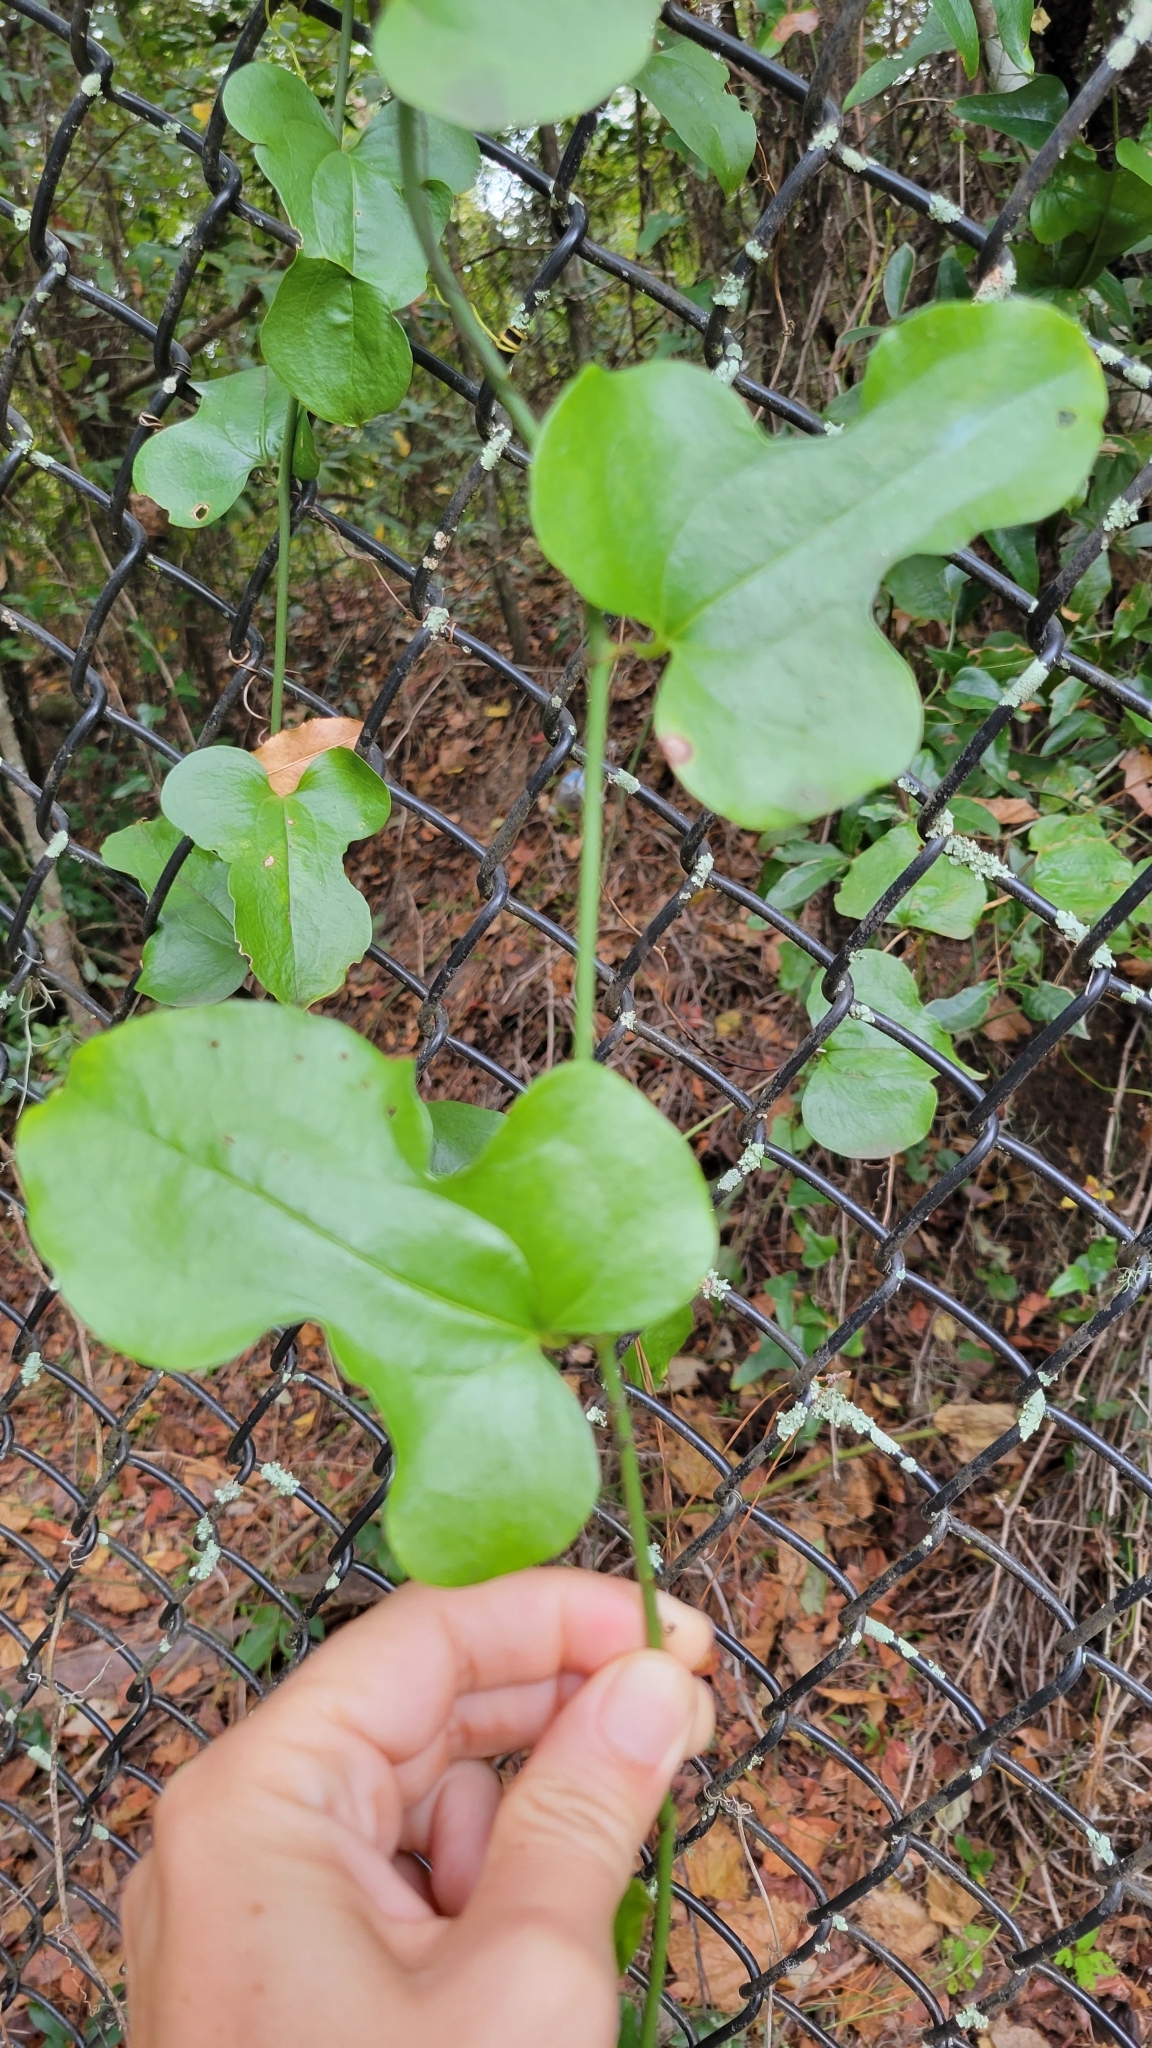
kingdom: Plantae
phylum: Tracheophyta
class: Liliopsida
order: Liliales
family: Smilacaceae
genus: Smilax
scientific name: Smilax tamnoides
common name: Hellfetter
